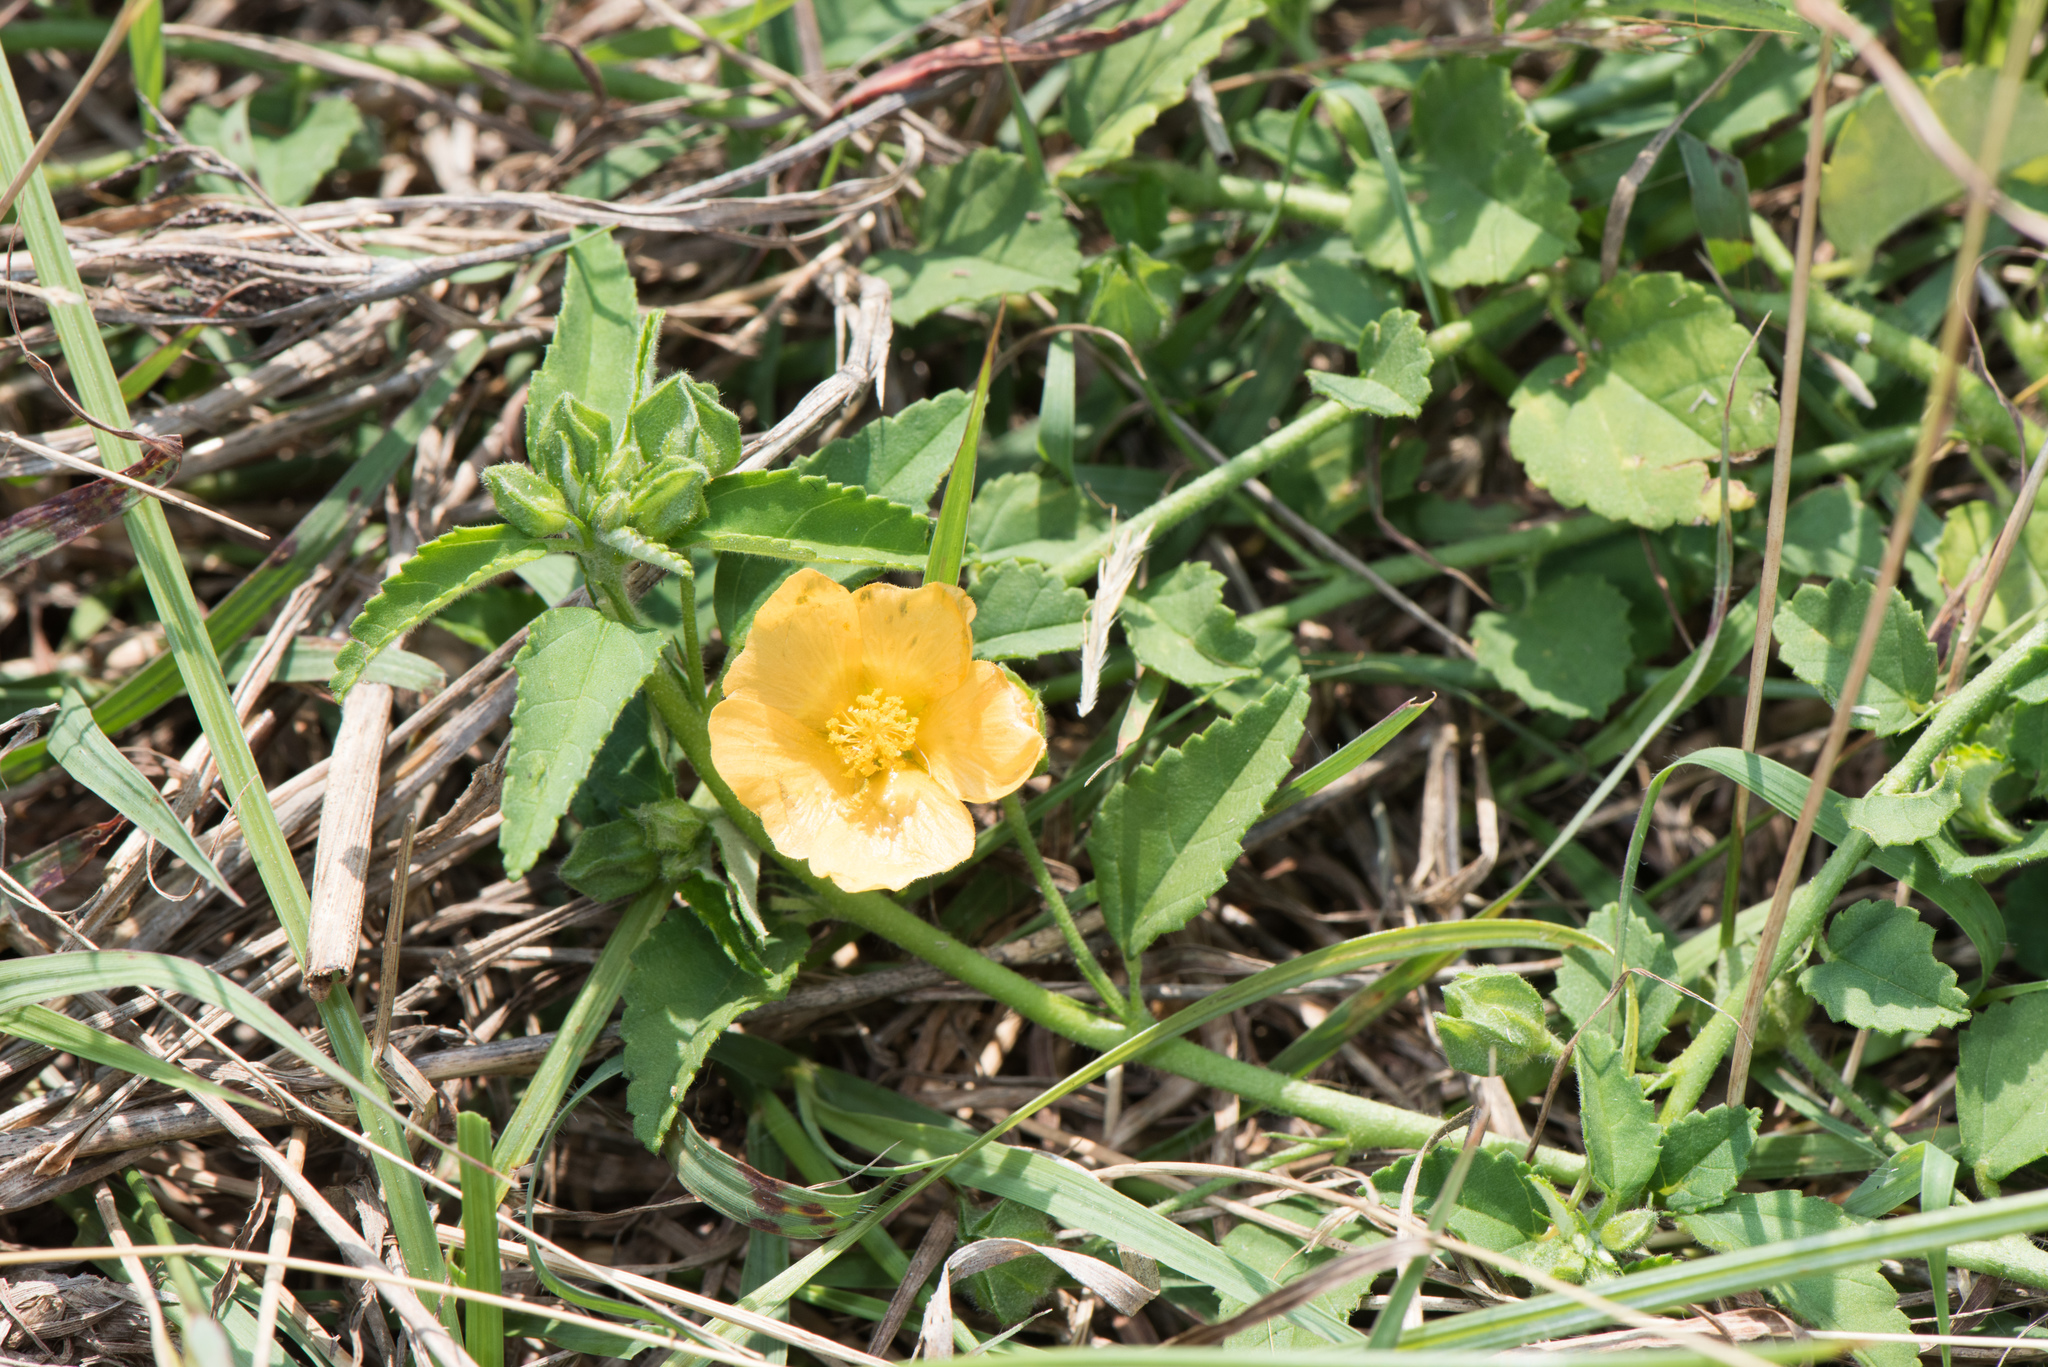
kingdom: Plantae
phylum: Tracheophyta
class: Magnoliopsida
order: Malvales
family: Malvaceae
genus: Sida
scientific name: Sida rhombifolia
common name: Queensland-hemp
